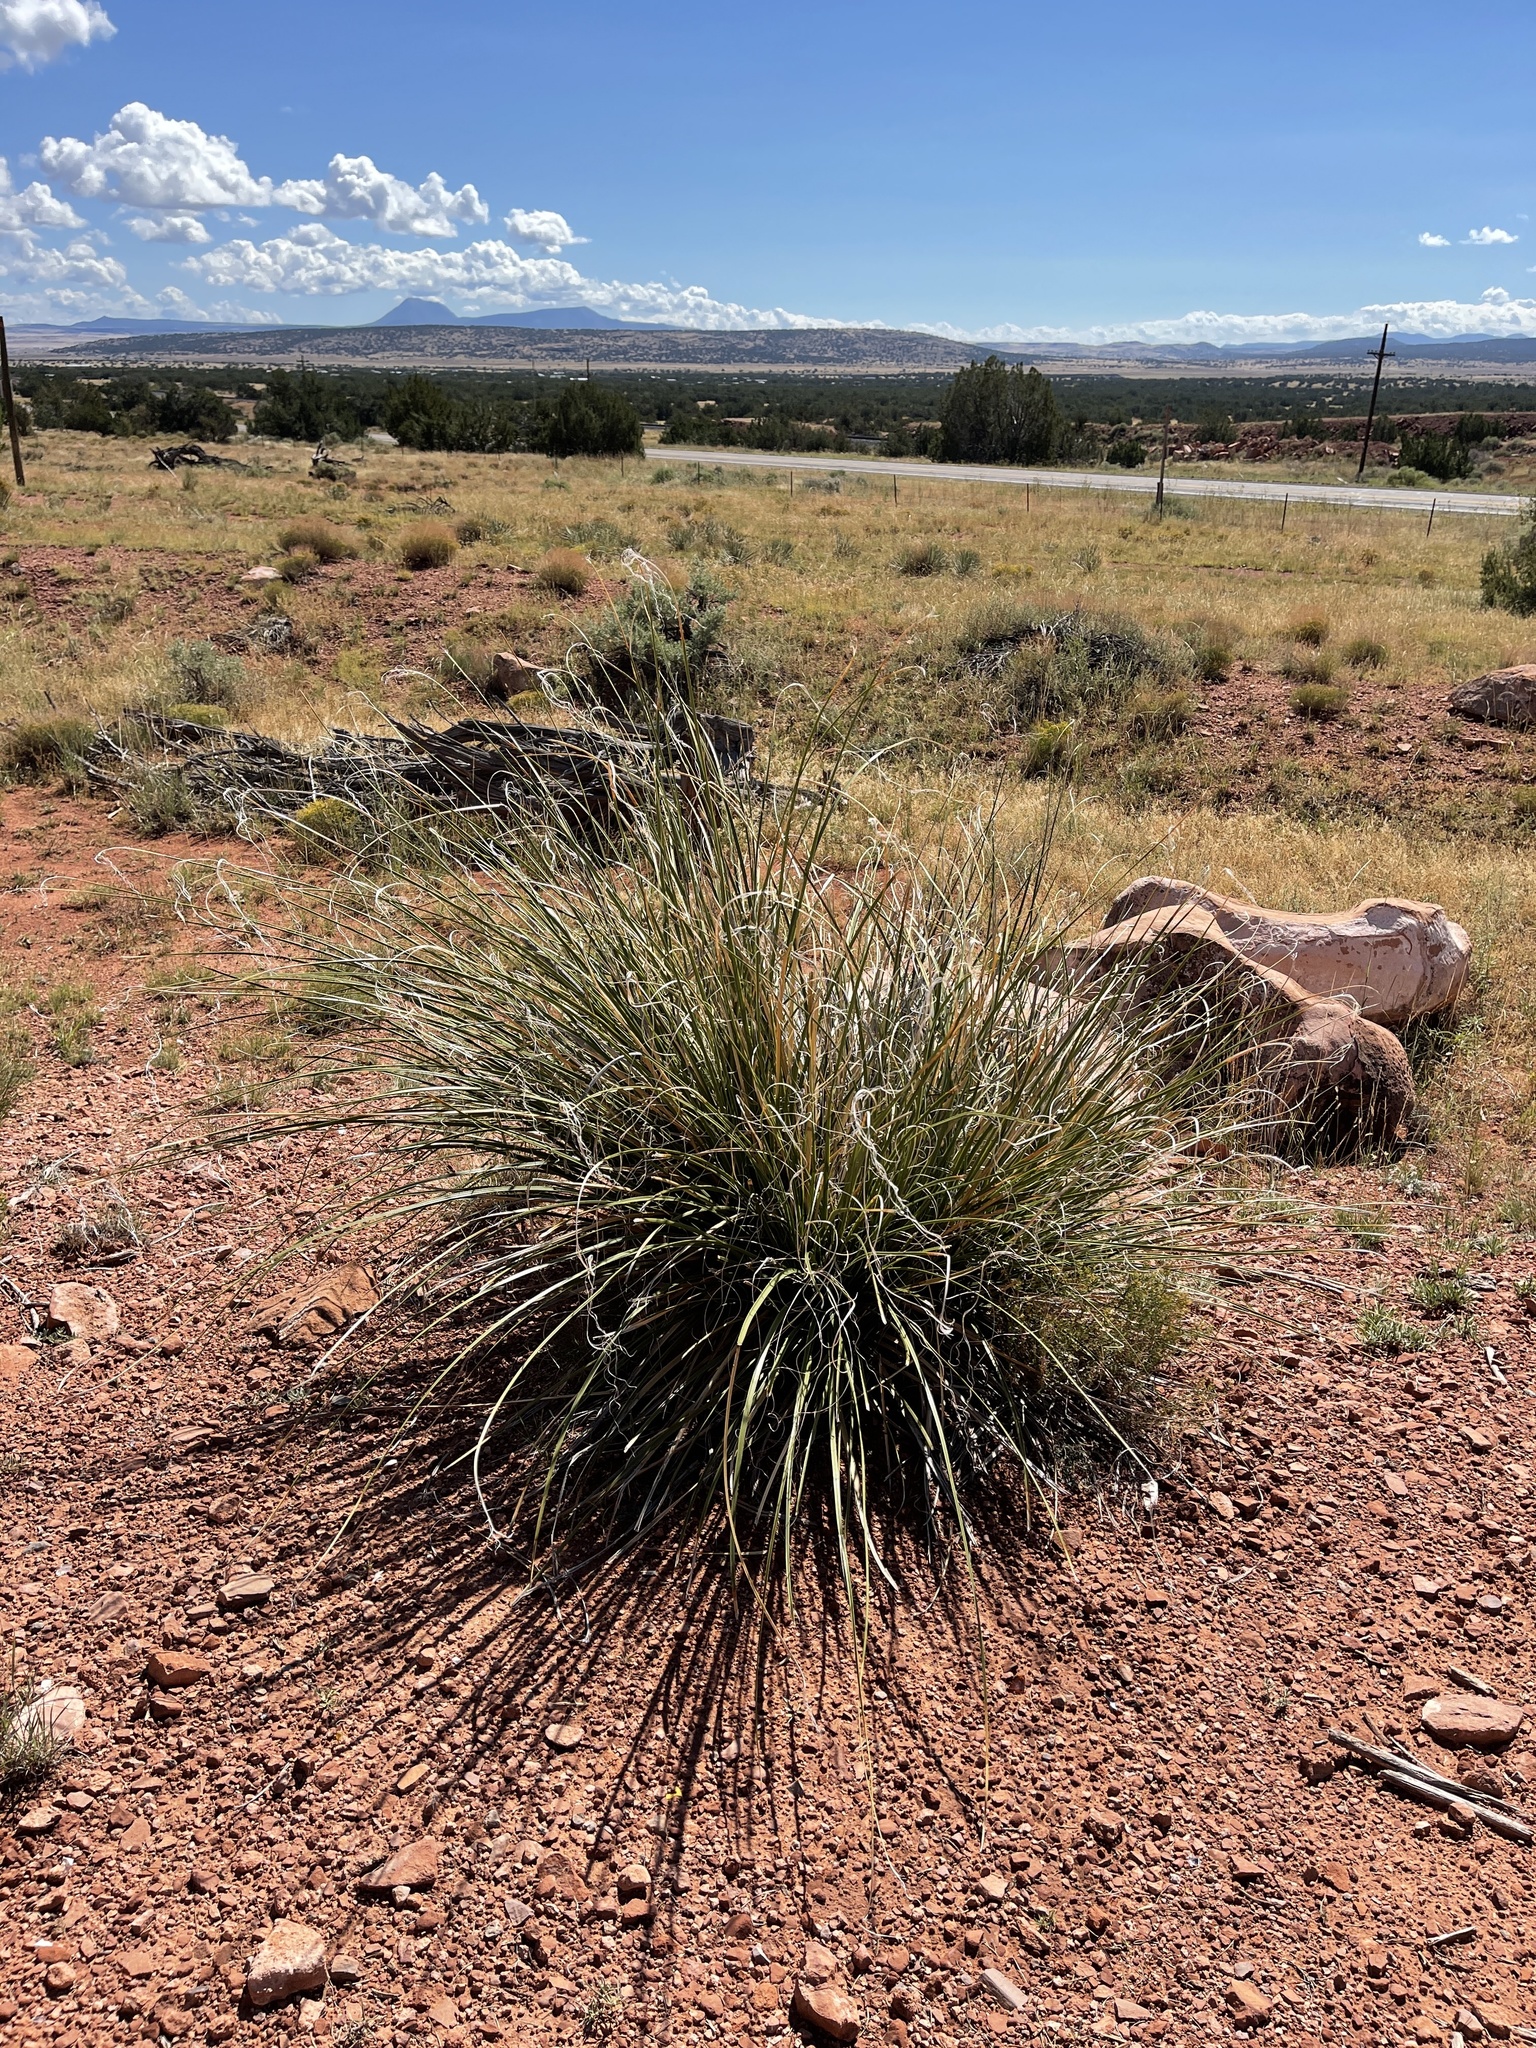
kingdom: Plantae
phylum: Tracheophyta
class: Liliopsida
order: Asparagales
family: Asparagaceae
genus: Nolina
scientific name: Nolina microcarpa
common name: Bear-grass
